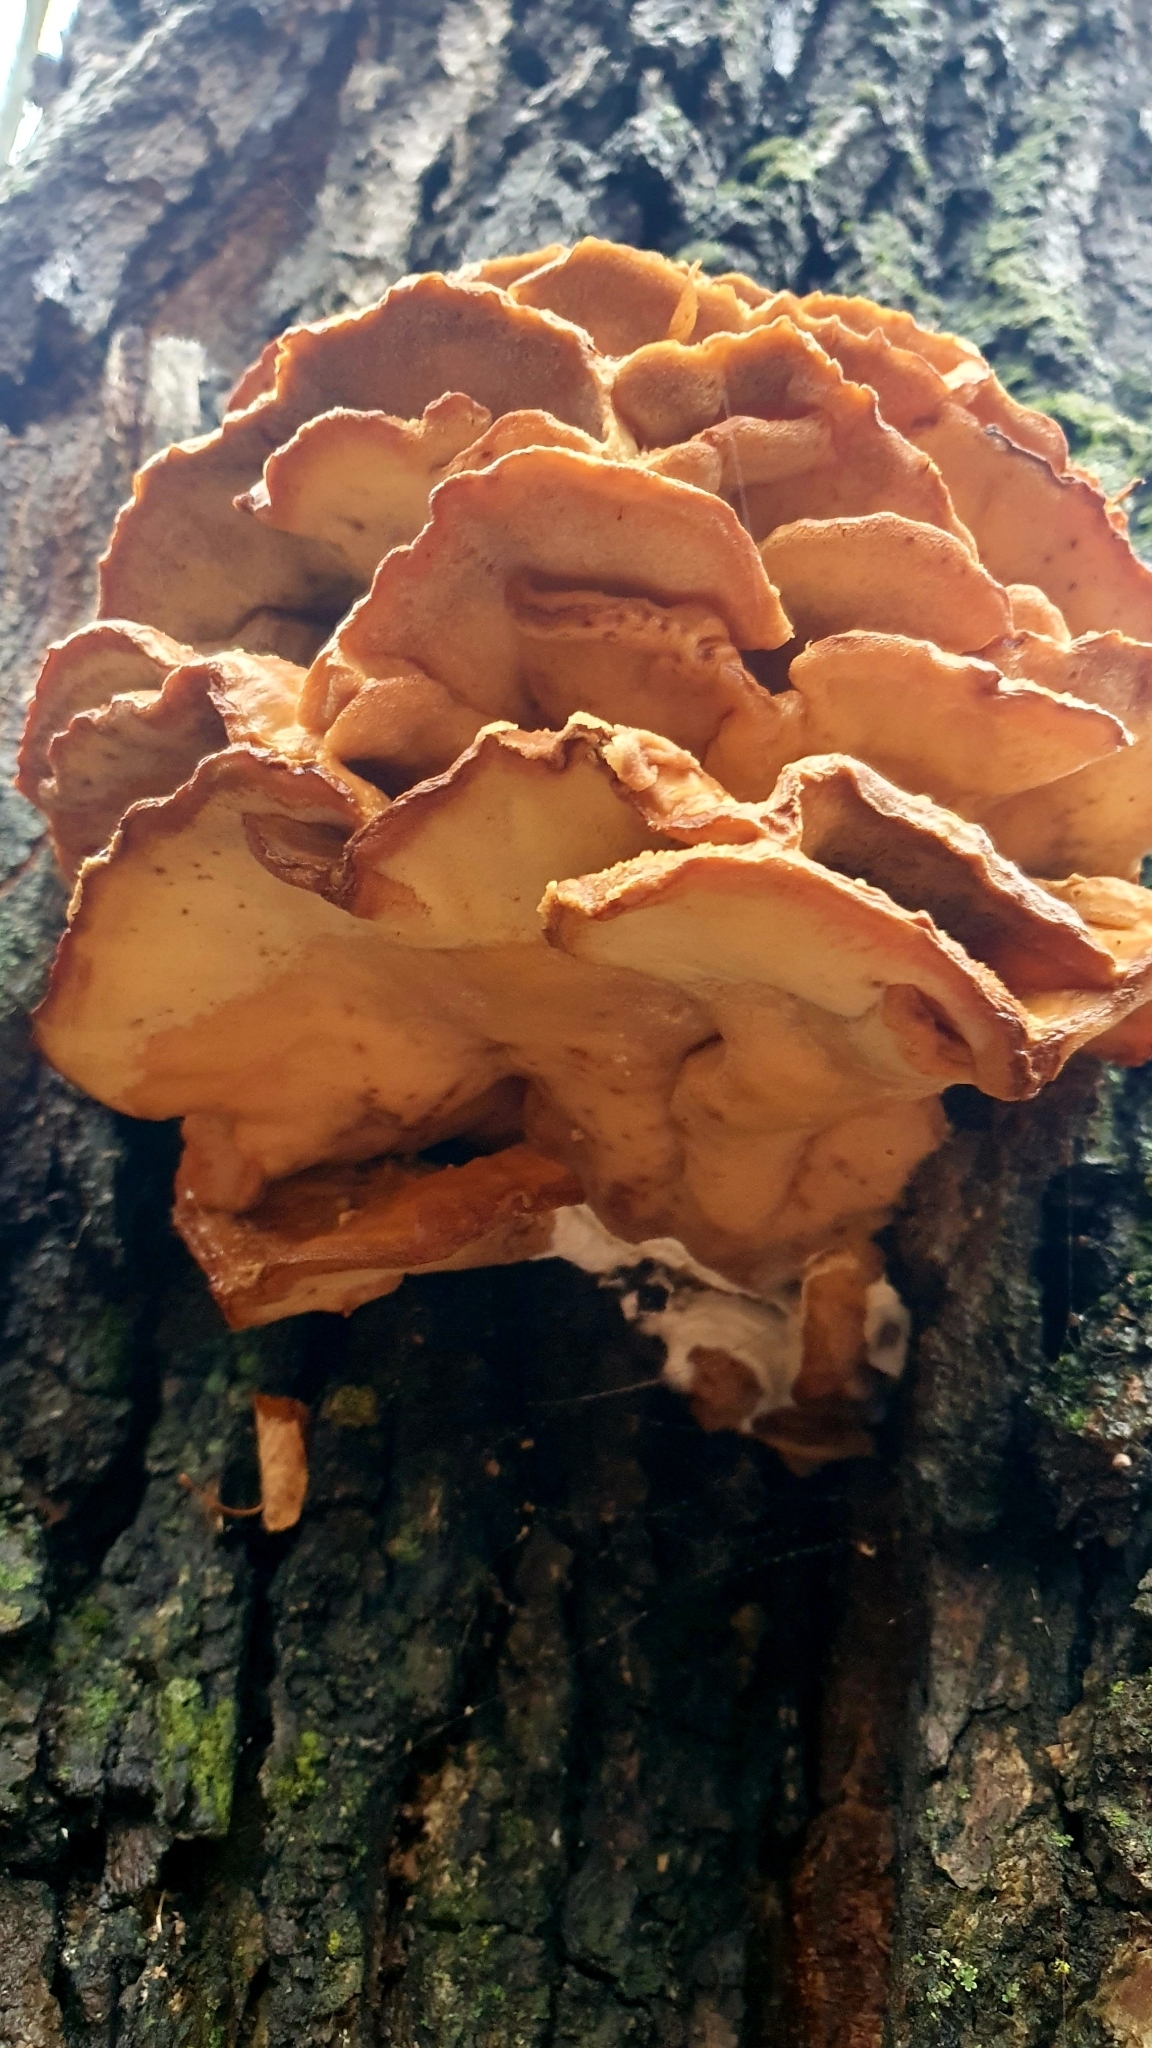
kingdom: Fungi
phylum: Basidiomycota
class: Agaricomycetes
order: Polyporales
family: Laetiporaceae
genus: Laetiporus
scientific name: Laetiporus sulphureus
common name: Chicken of the woods
